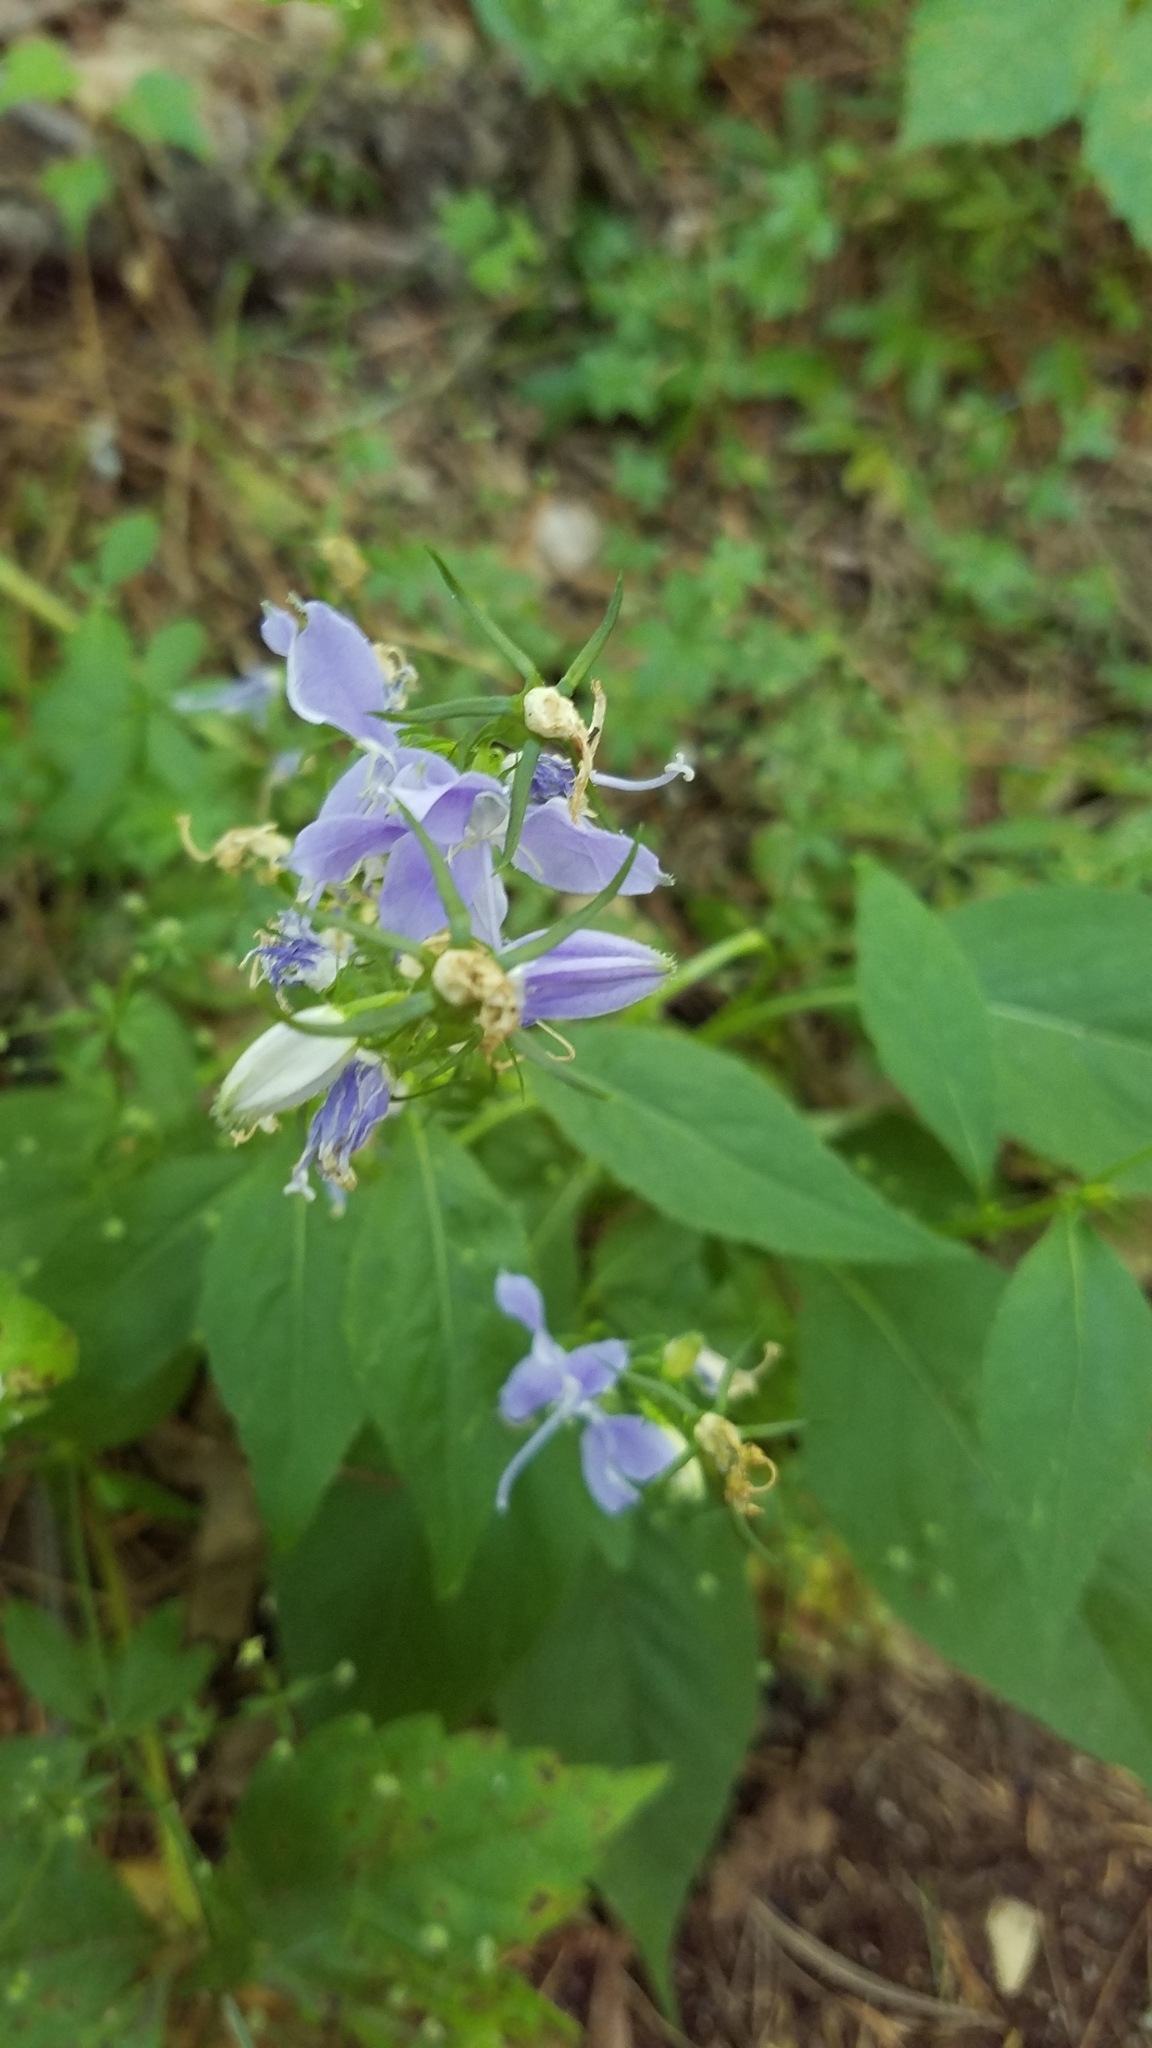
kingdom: Plantae
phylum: Tracheophyta
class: Magnoliopsida
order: Asterales
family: Campanulaceae
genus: Campanulastrum
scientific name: Campanulastrum americanum
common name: American bellflower
